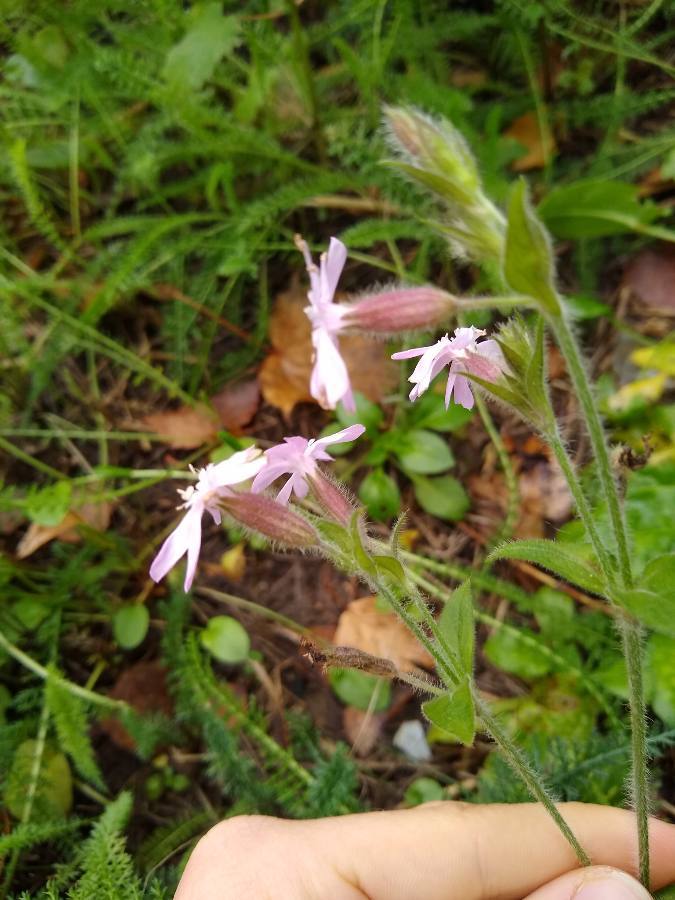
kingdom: Plantae
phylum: Tracheophyta
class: Magnoliopsida
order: Caryophyllales
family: Caryophyllaceae
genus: Silene
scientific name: Silene dioica
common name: Red campion
